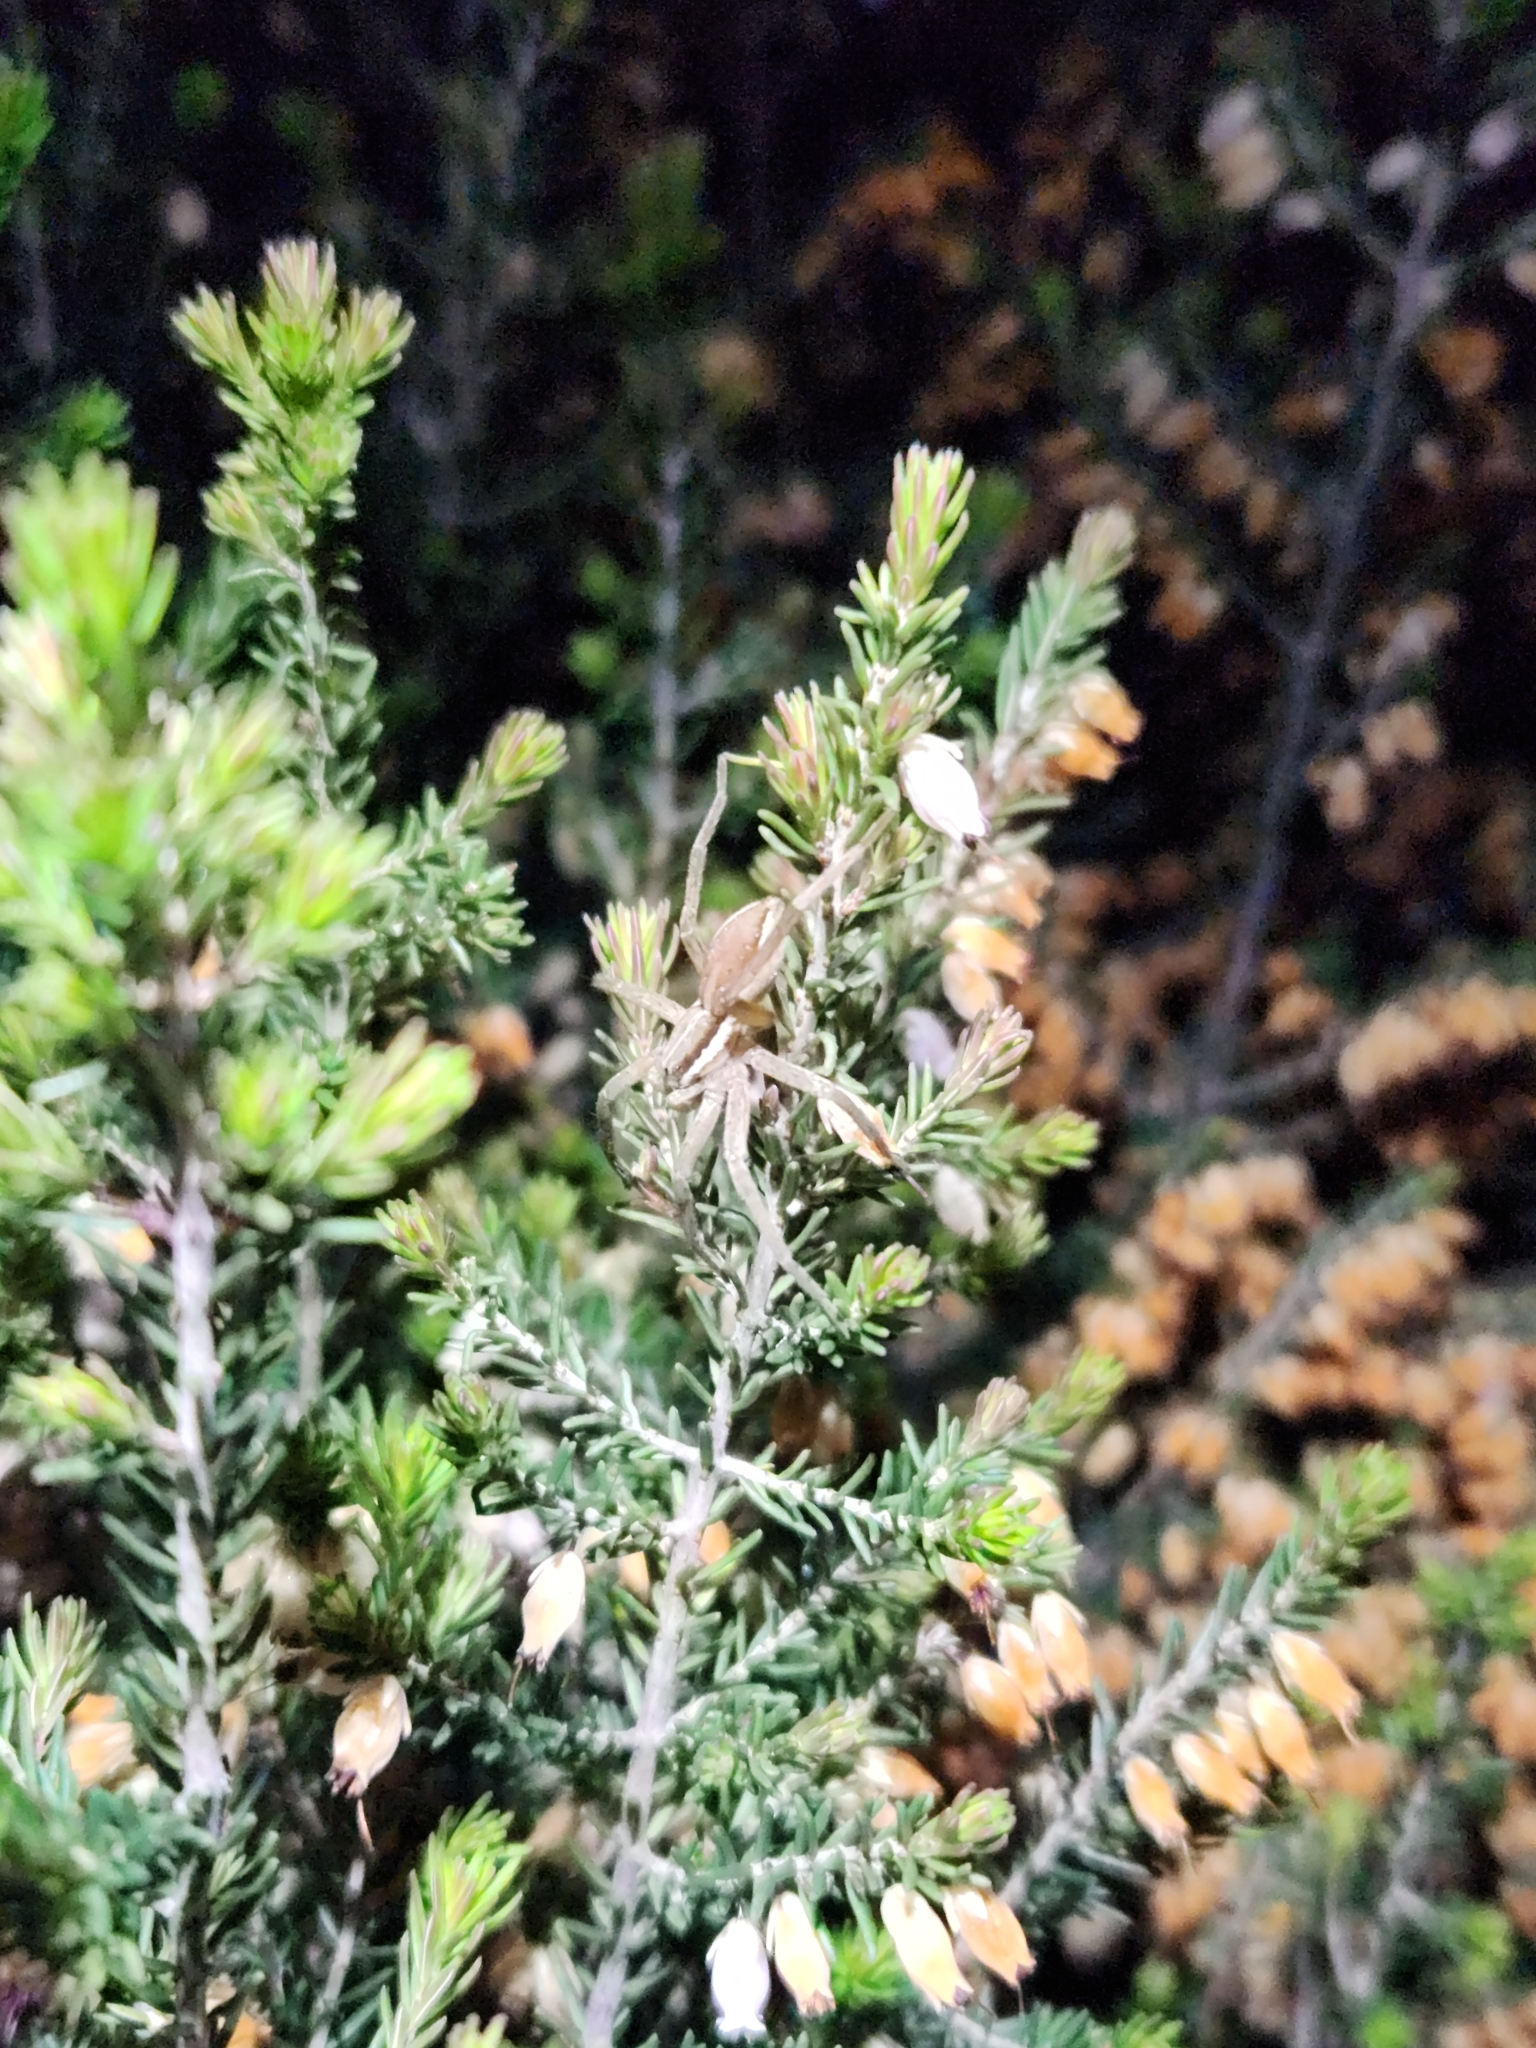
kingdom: Animalia
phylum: Arthropoda
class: Arachnida
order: Araneae
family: Pisauridae
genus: Dolomedes
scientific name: Dolomedes minor
